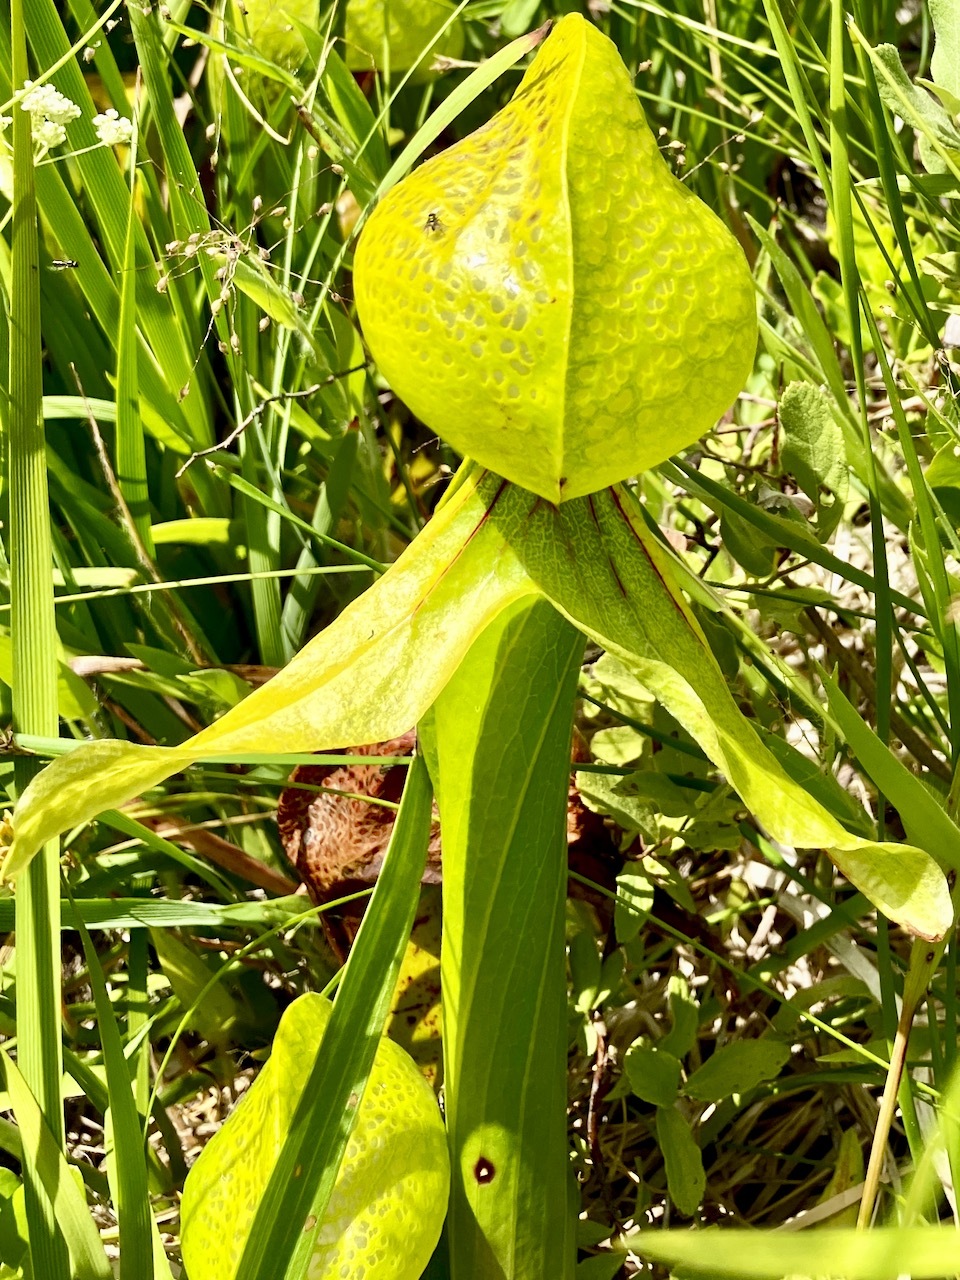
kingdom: Plantae
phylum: Tracheophyta
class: Magnoliopsida
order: Ericales
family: Sarraceniaceae
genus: Darlingtonia
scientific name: Darlingtonia californica
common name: California pitcher plant
